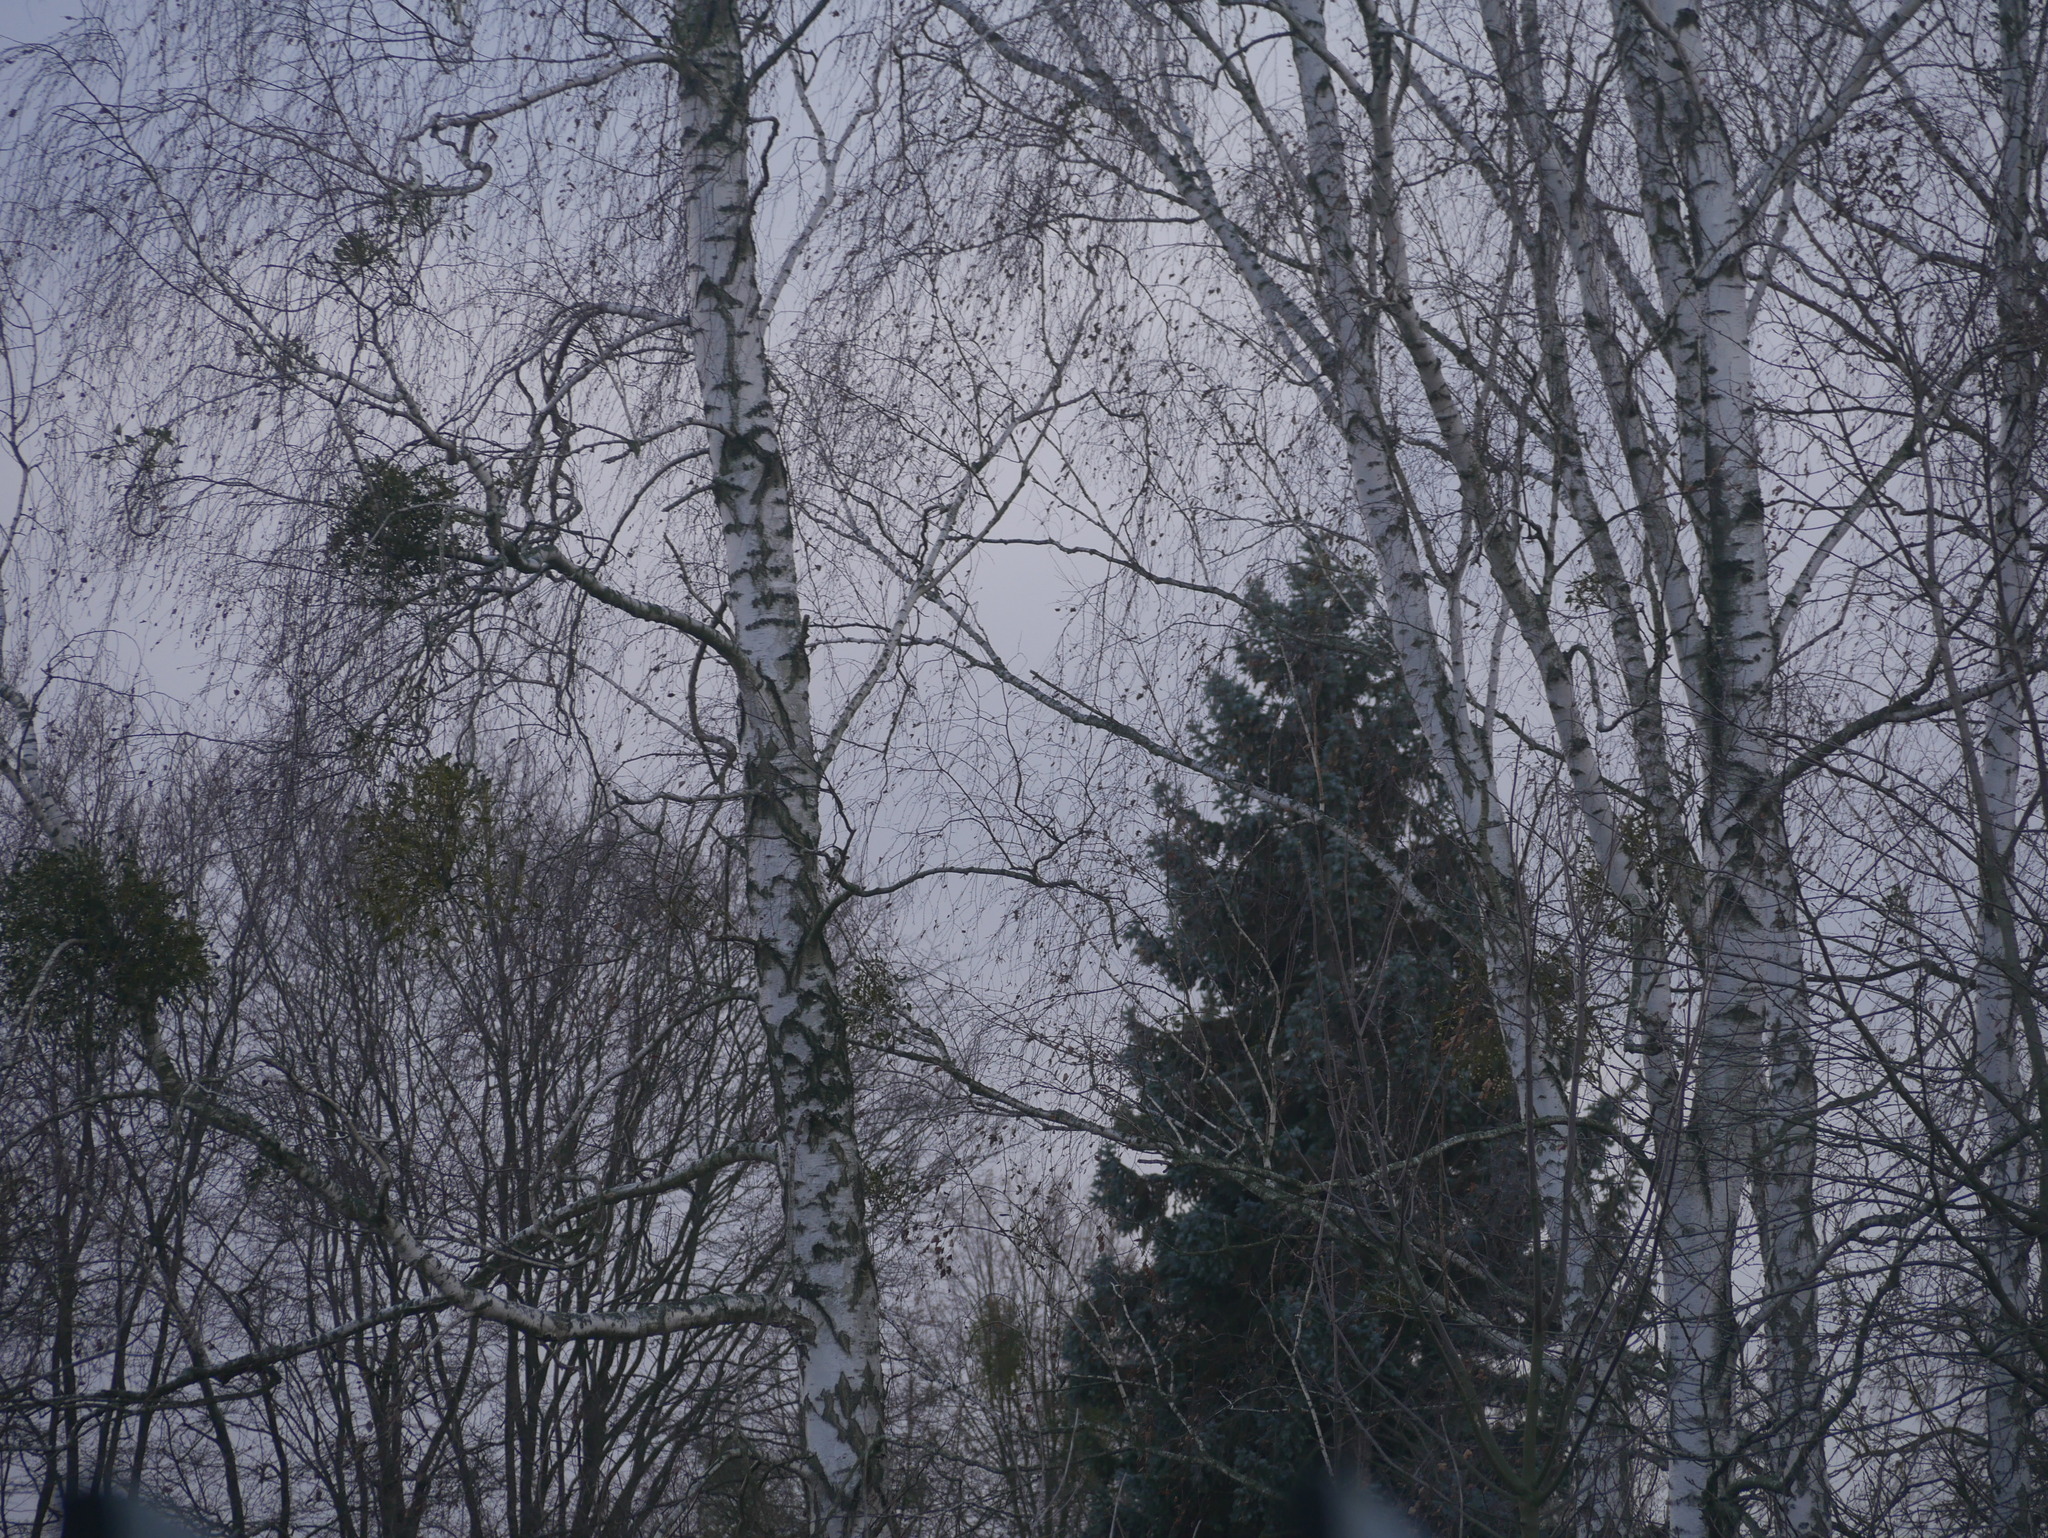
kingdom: Plantae
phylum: Tracheophyta
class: Magnoliopsida
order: Fagales
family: Betulaceae
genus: Betula
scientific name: Betula pendula
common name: Silver birch
